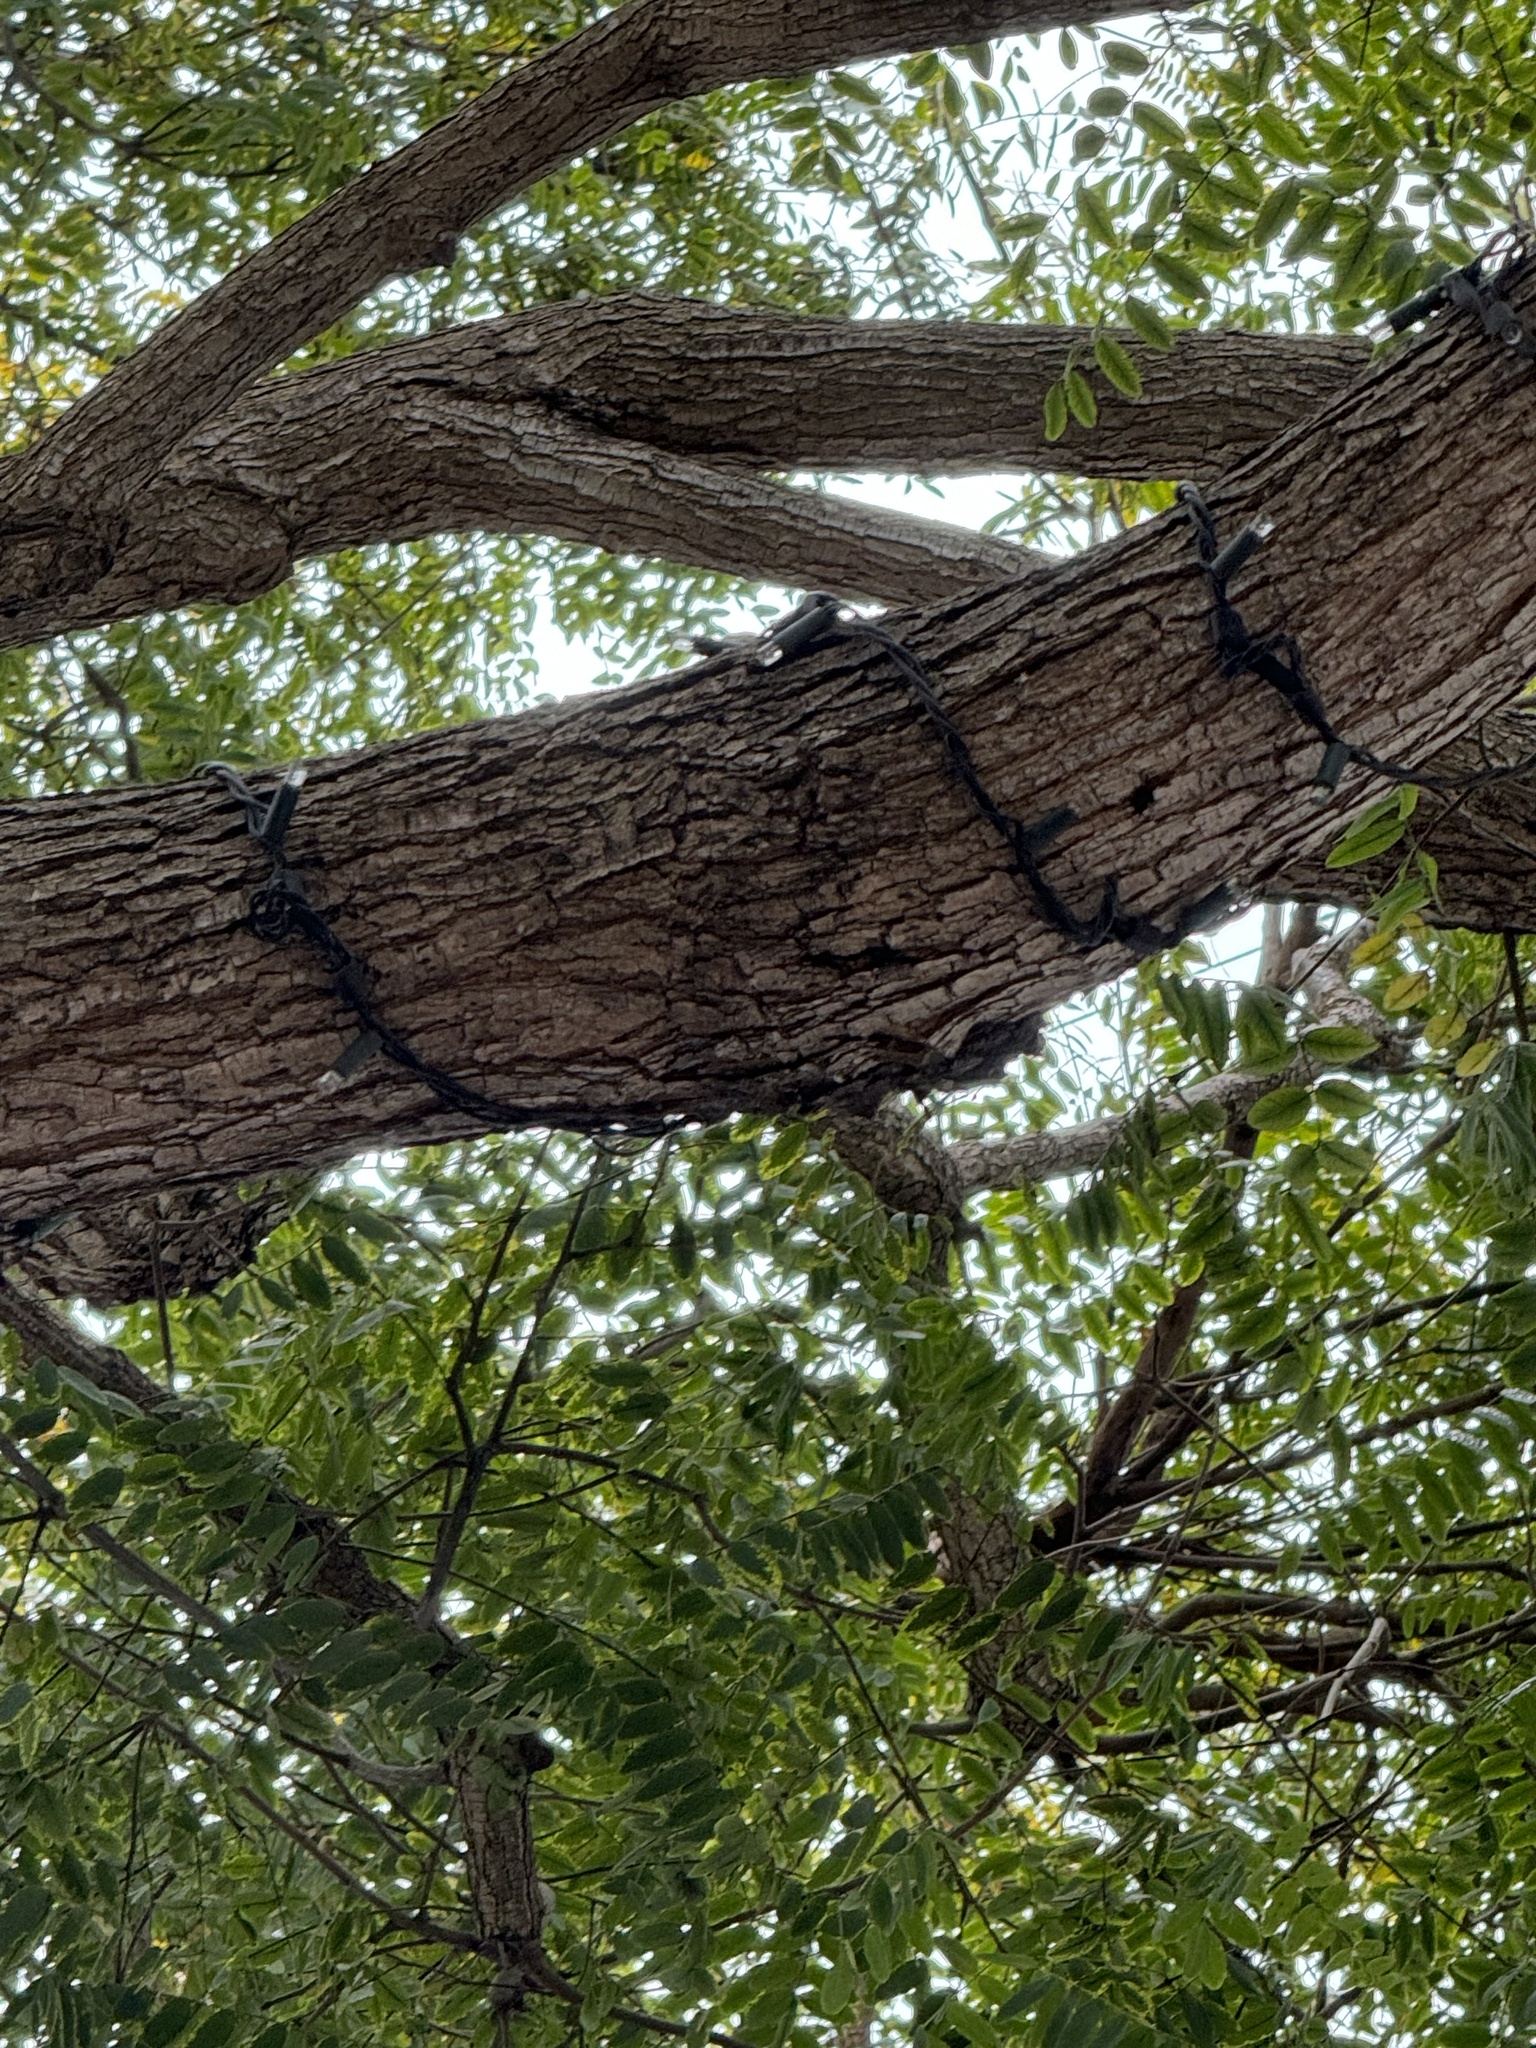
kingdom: Animalia
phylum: Chordata
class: Aves
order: Passeriformes
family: Parulidae
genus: Setophaga
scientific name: Setophaga auduboni
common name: Audubon's warbler
